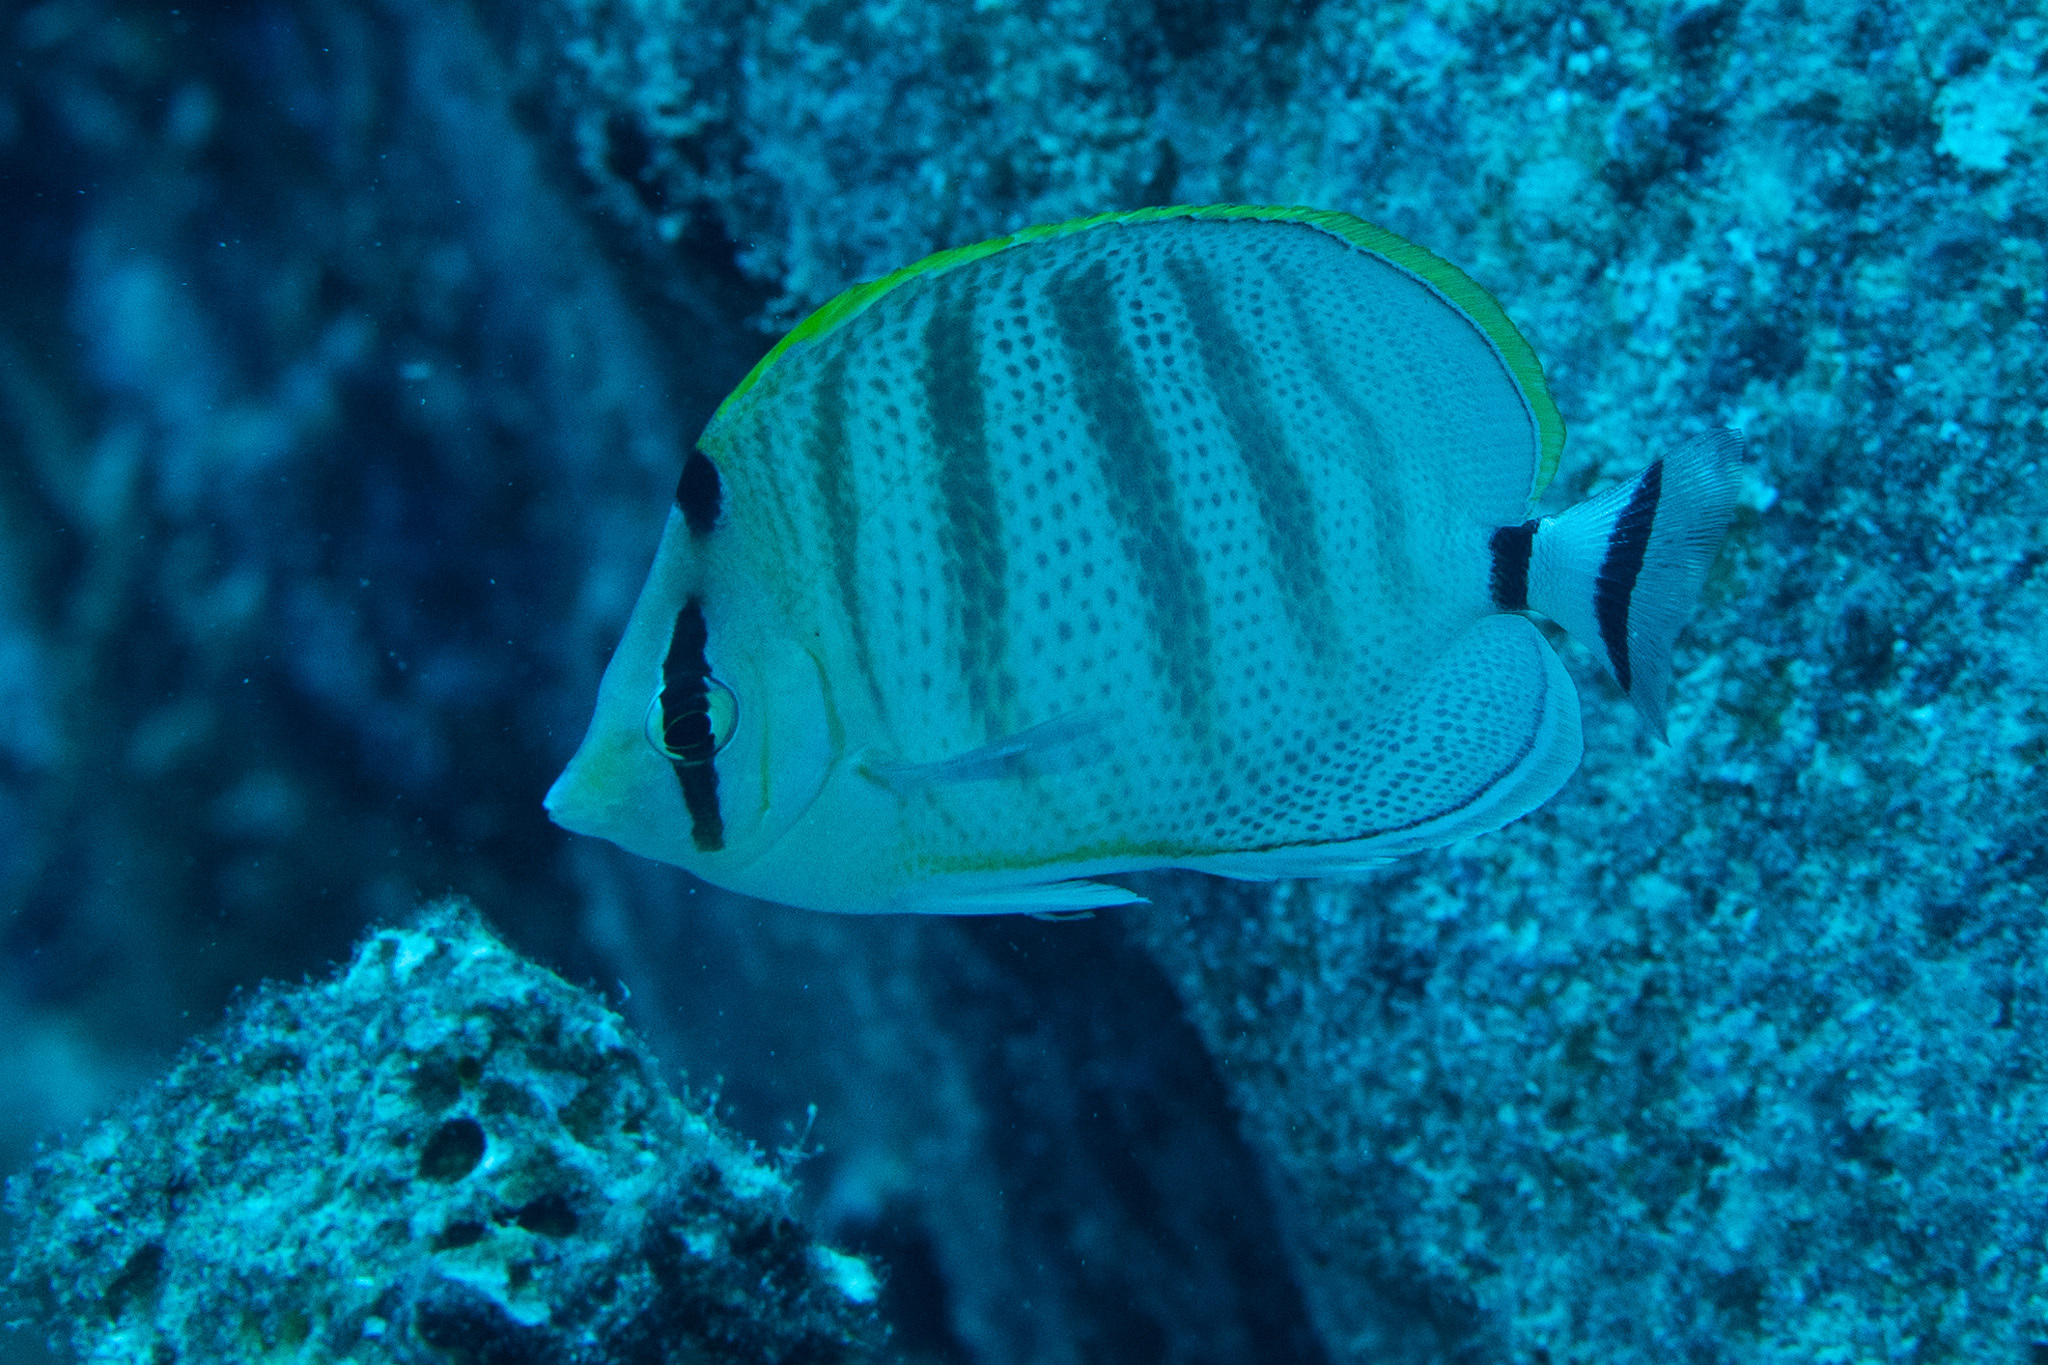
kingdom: Animalia
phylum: Chordata
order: Perciformes
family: Chaetodontidae
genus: Chaetodon
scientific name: Chaetodon multicinctus
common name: Multiband butterflyfish
